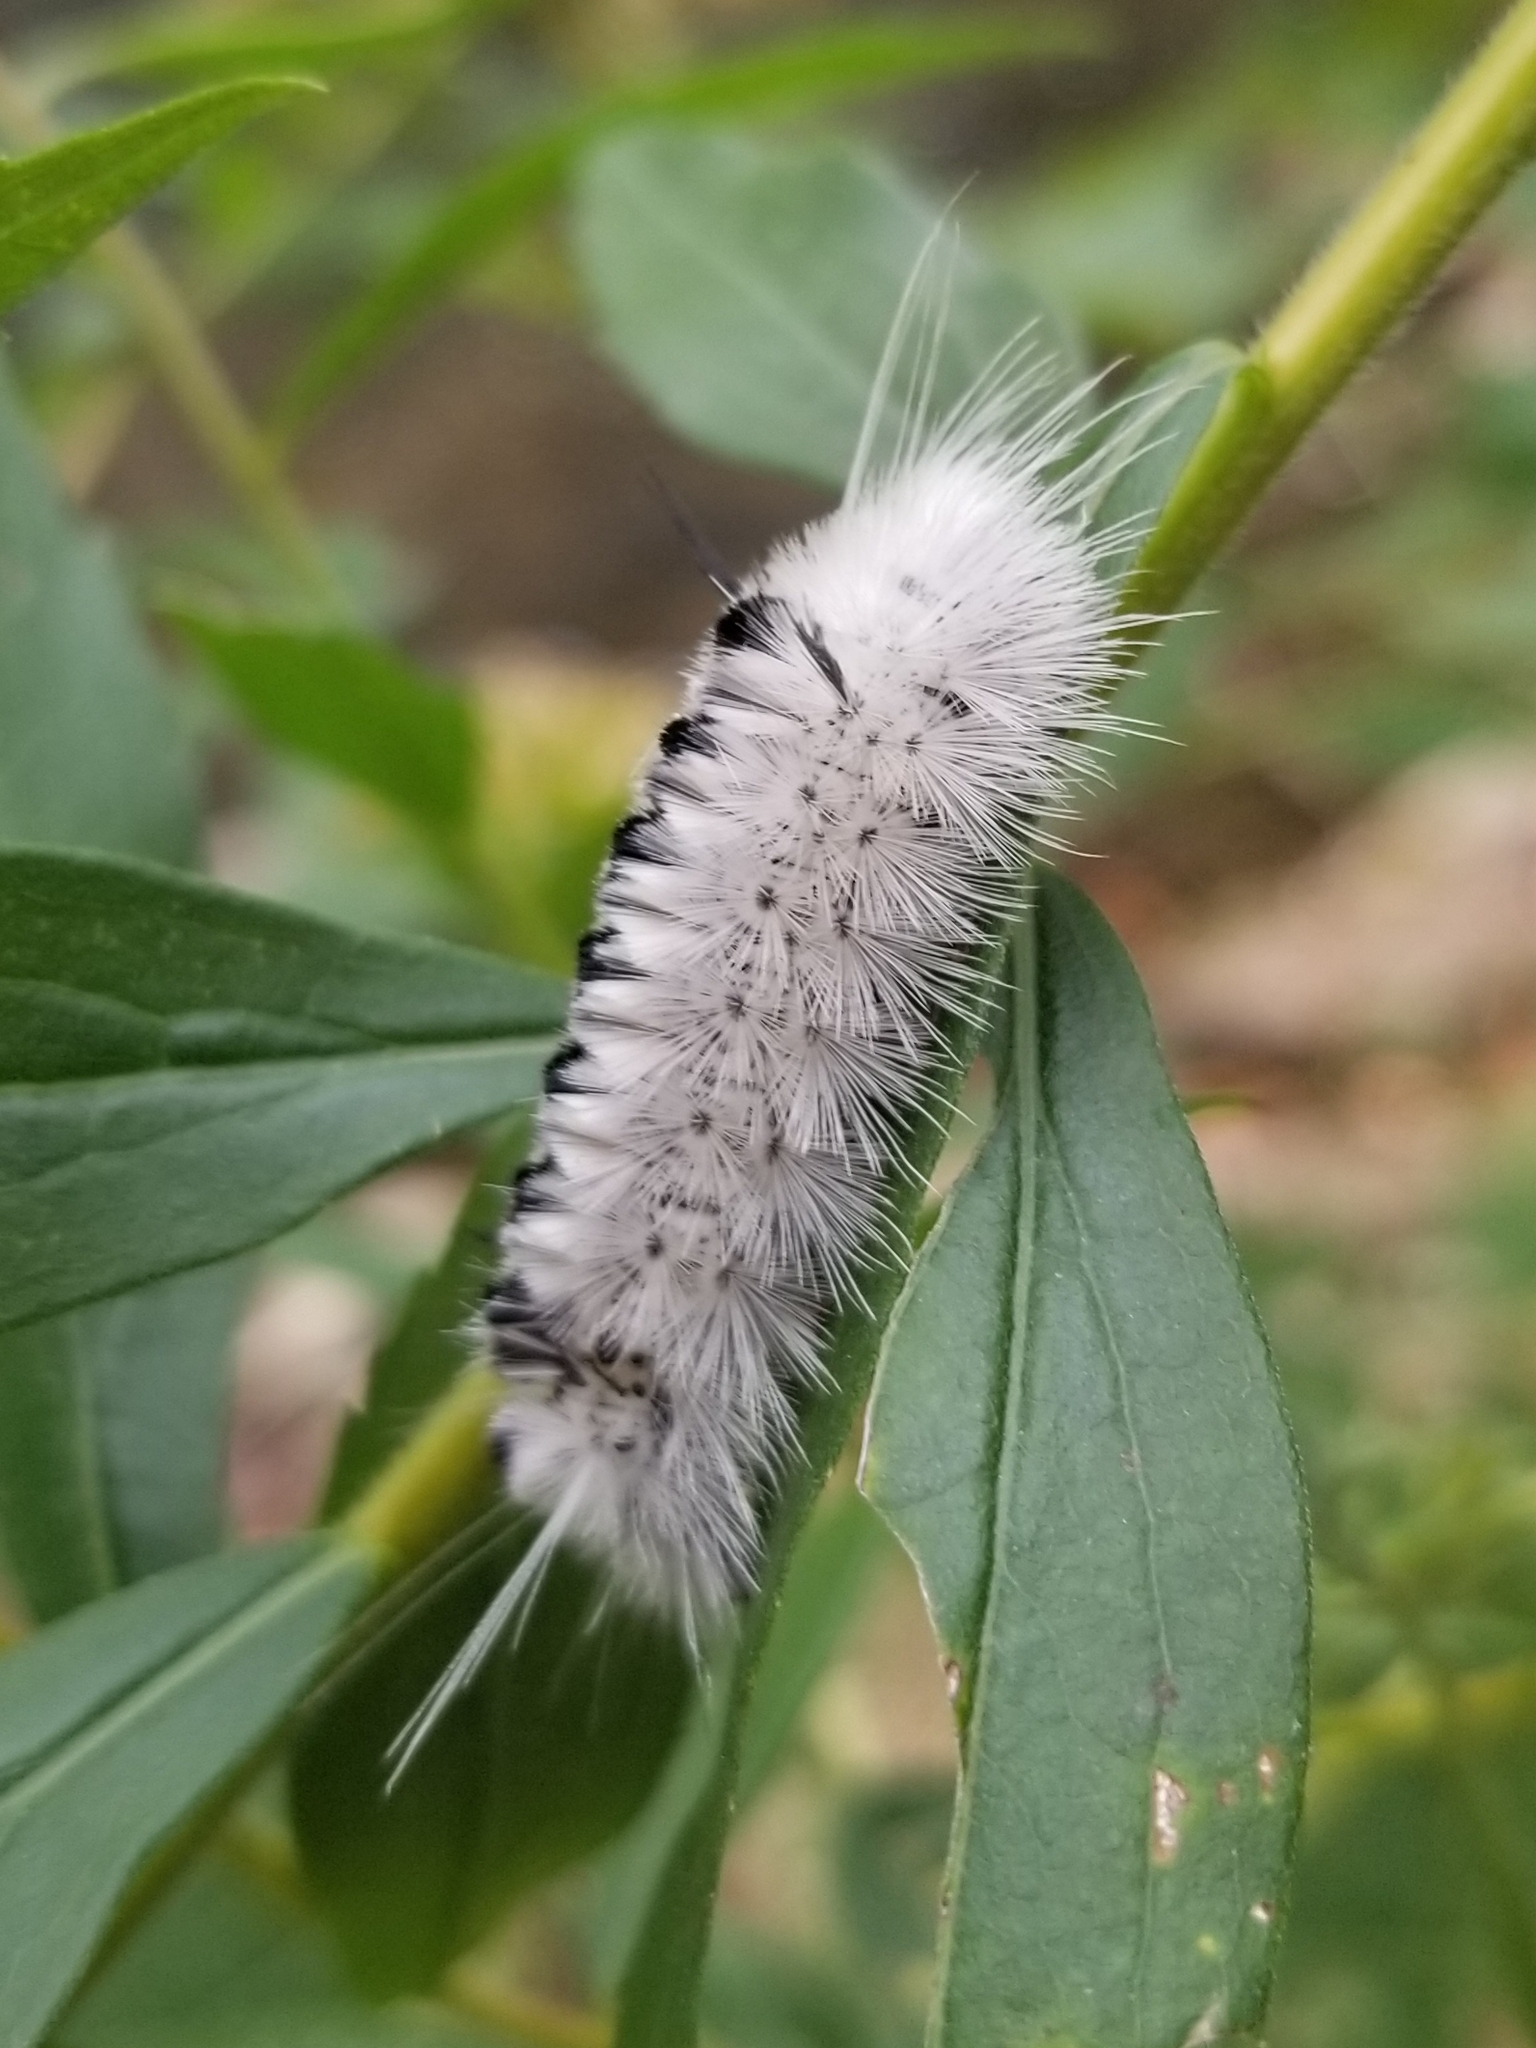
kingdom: Animalia
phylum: Arthropoda
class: Insecta
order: Lepidoptera
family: Erebidae
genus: Lophocampa
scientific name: Lophocampa caryae
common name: Hickory tussock moth
